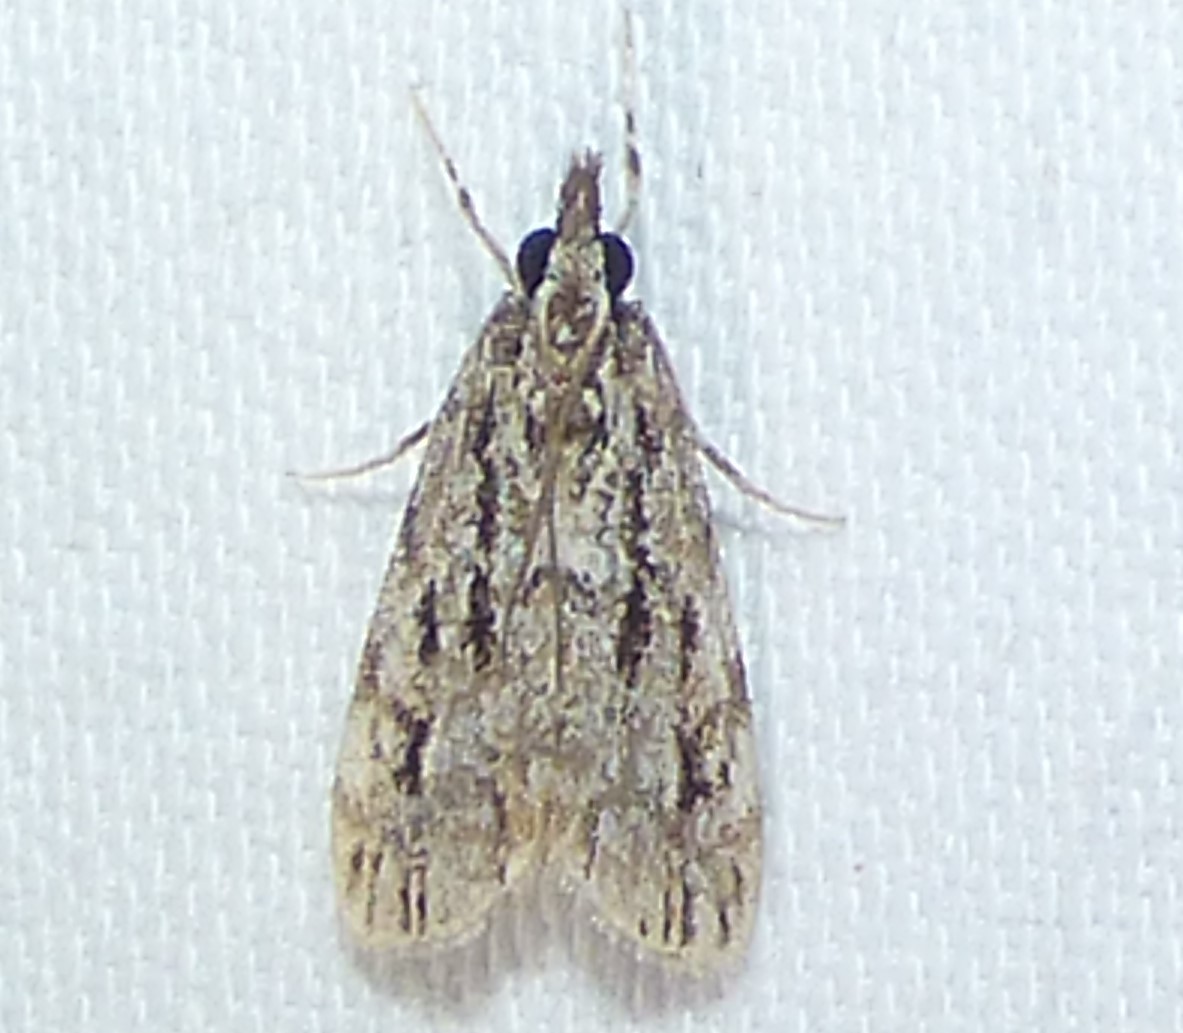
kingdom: Animalia
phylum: Arthropoda
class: Insecta
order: Lepidoptera
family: Crambidae
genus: Eudonia
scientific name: Eudonia strigalis
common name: Striped eudonia moth
